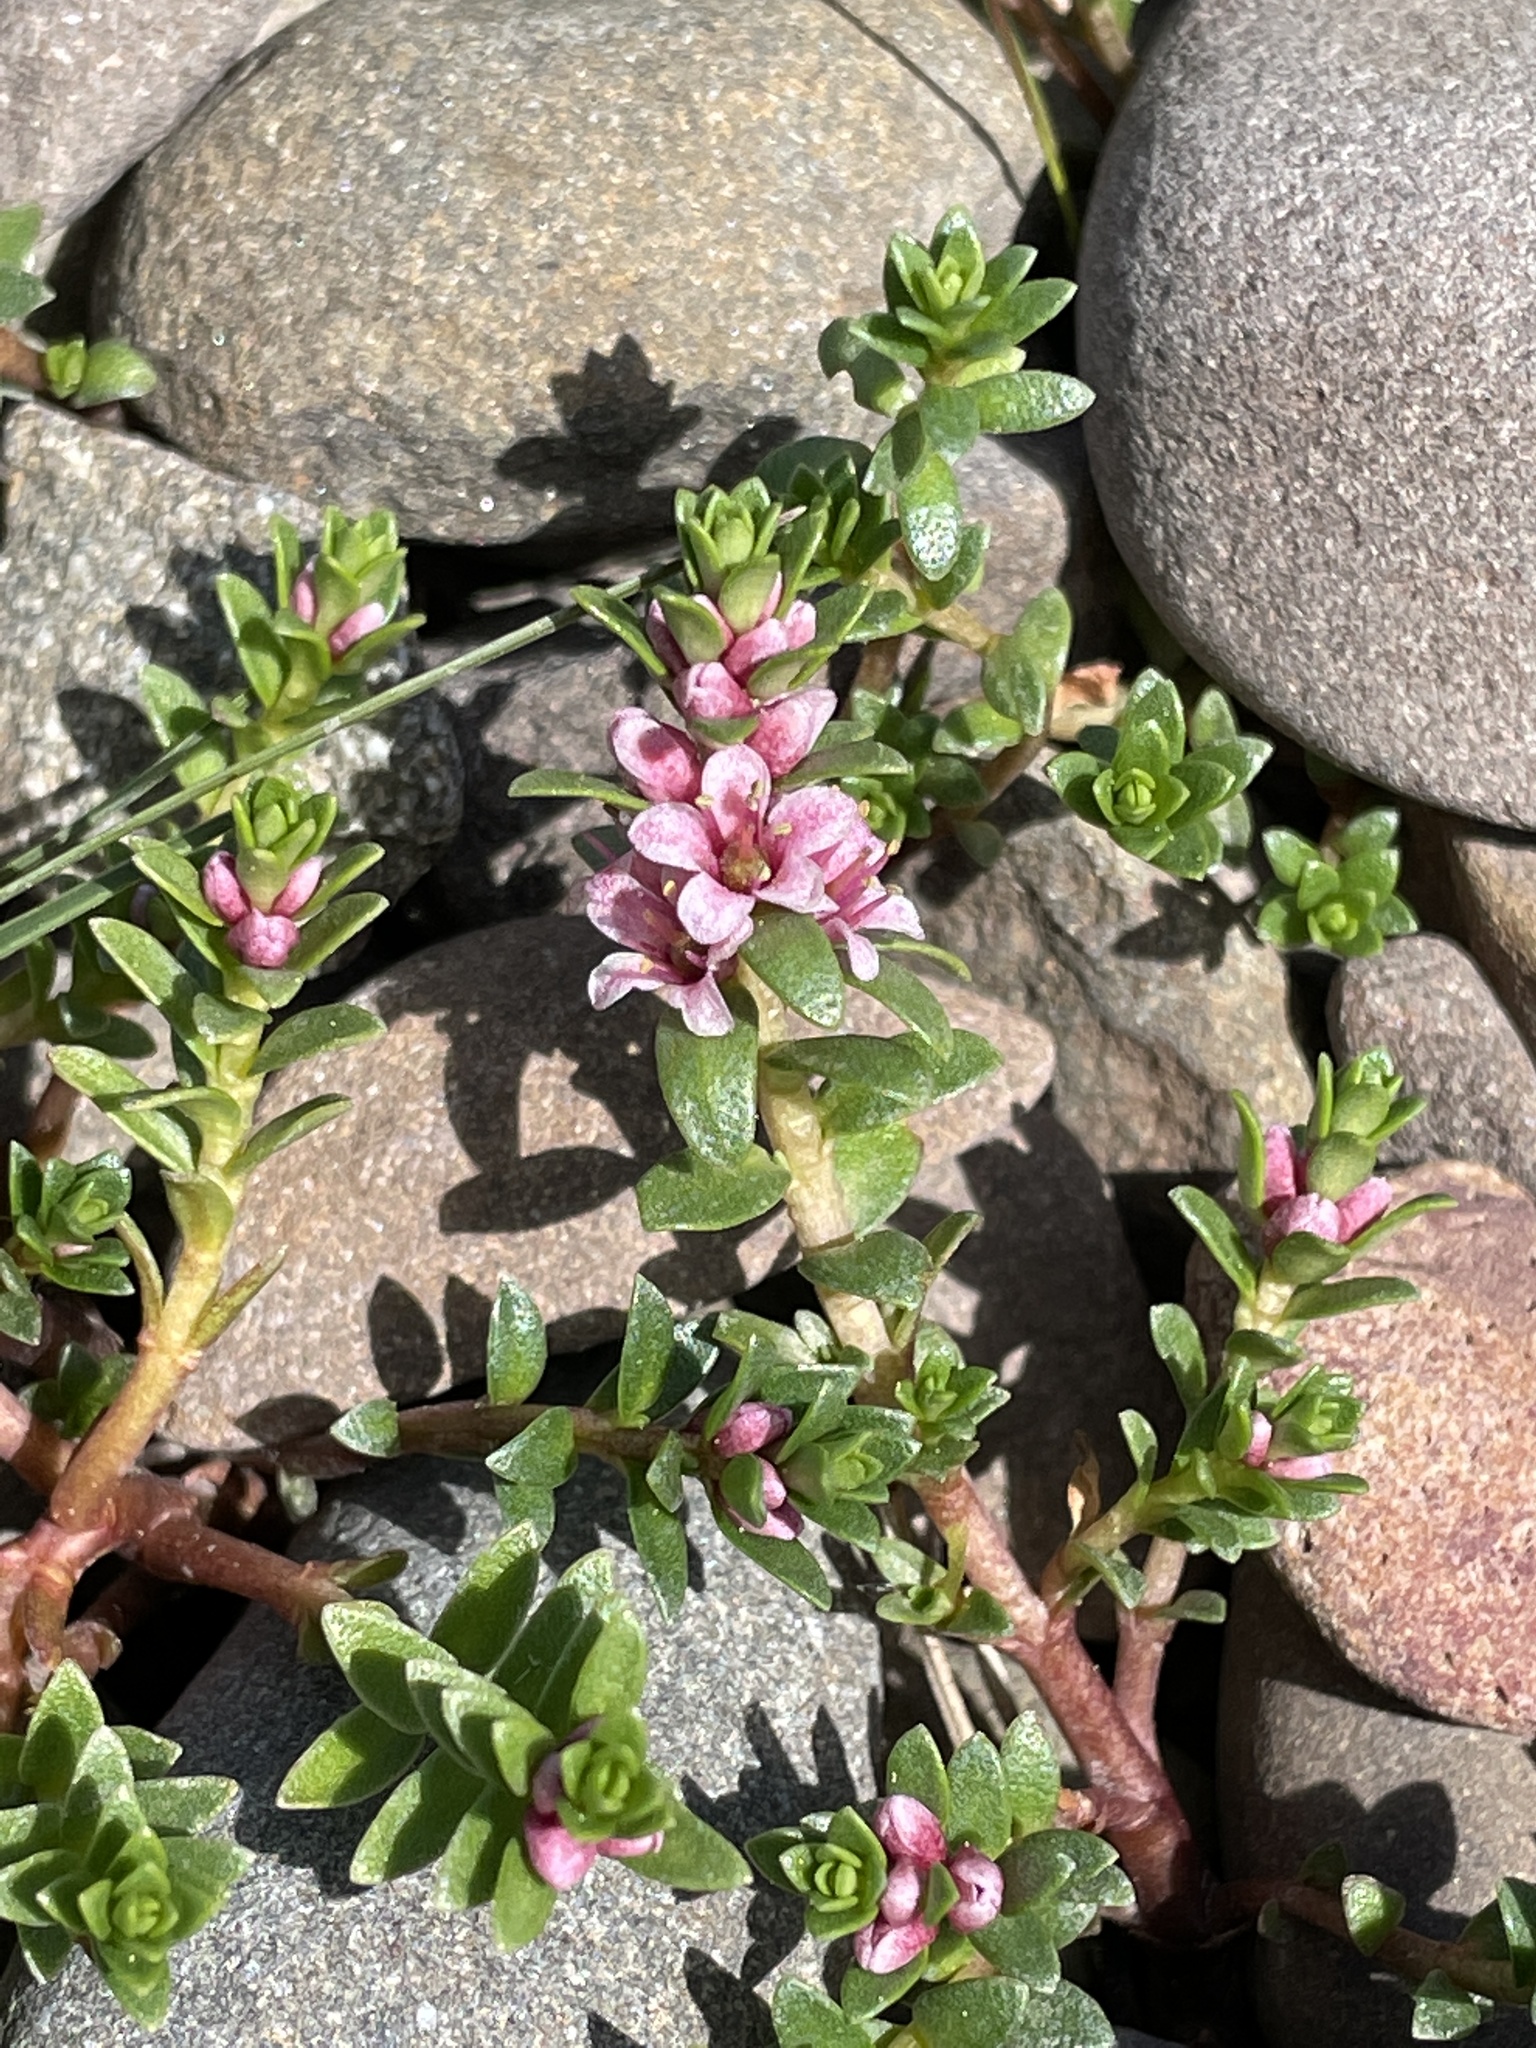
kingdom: Plantae
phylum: Tracheophyta
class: Magnoliopsida
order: Ericales
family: Primulaceae
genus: Lysimachia
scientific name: Lysimachia maritima
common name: Sea milkwort
